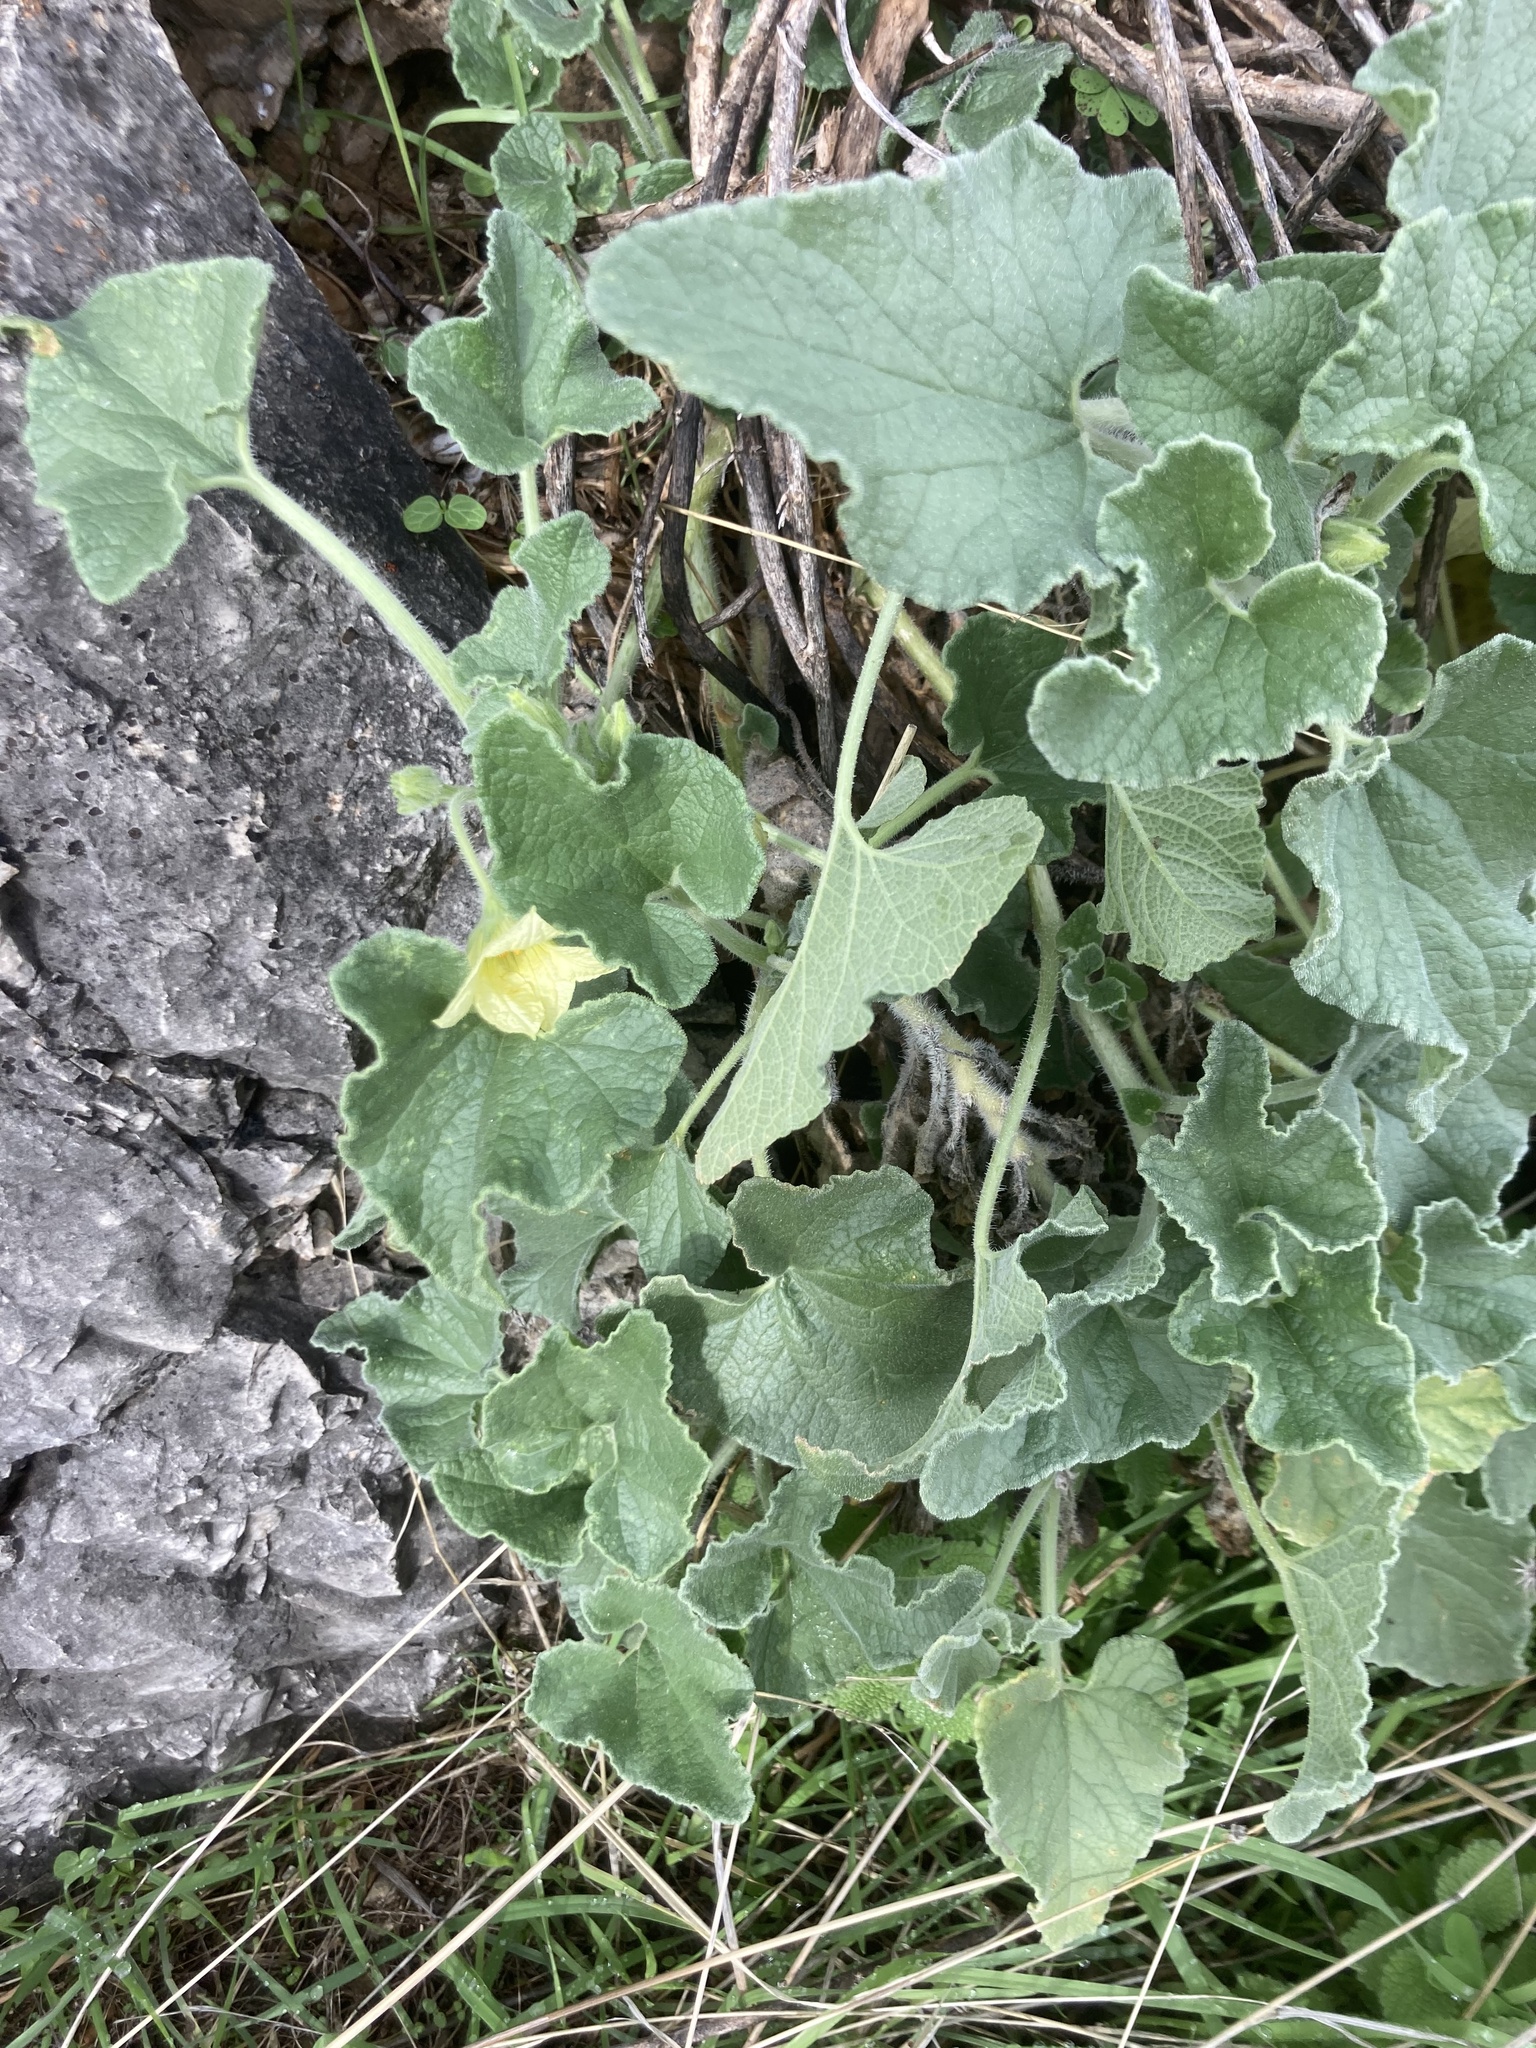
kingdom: Plantae
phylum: Tracheophyta
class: Magnoliopsida
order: Cucurbitales
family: Cucurbitaceae
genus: Ecballium
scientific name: Ecballium elaterium
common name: Squirting cucumber
